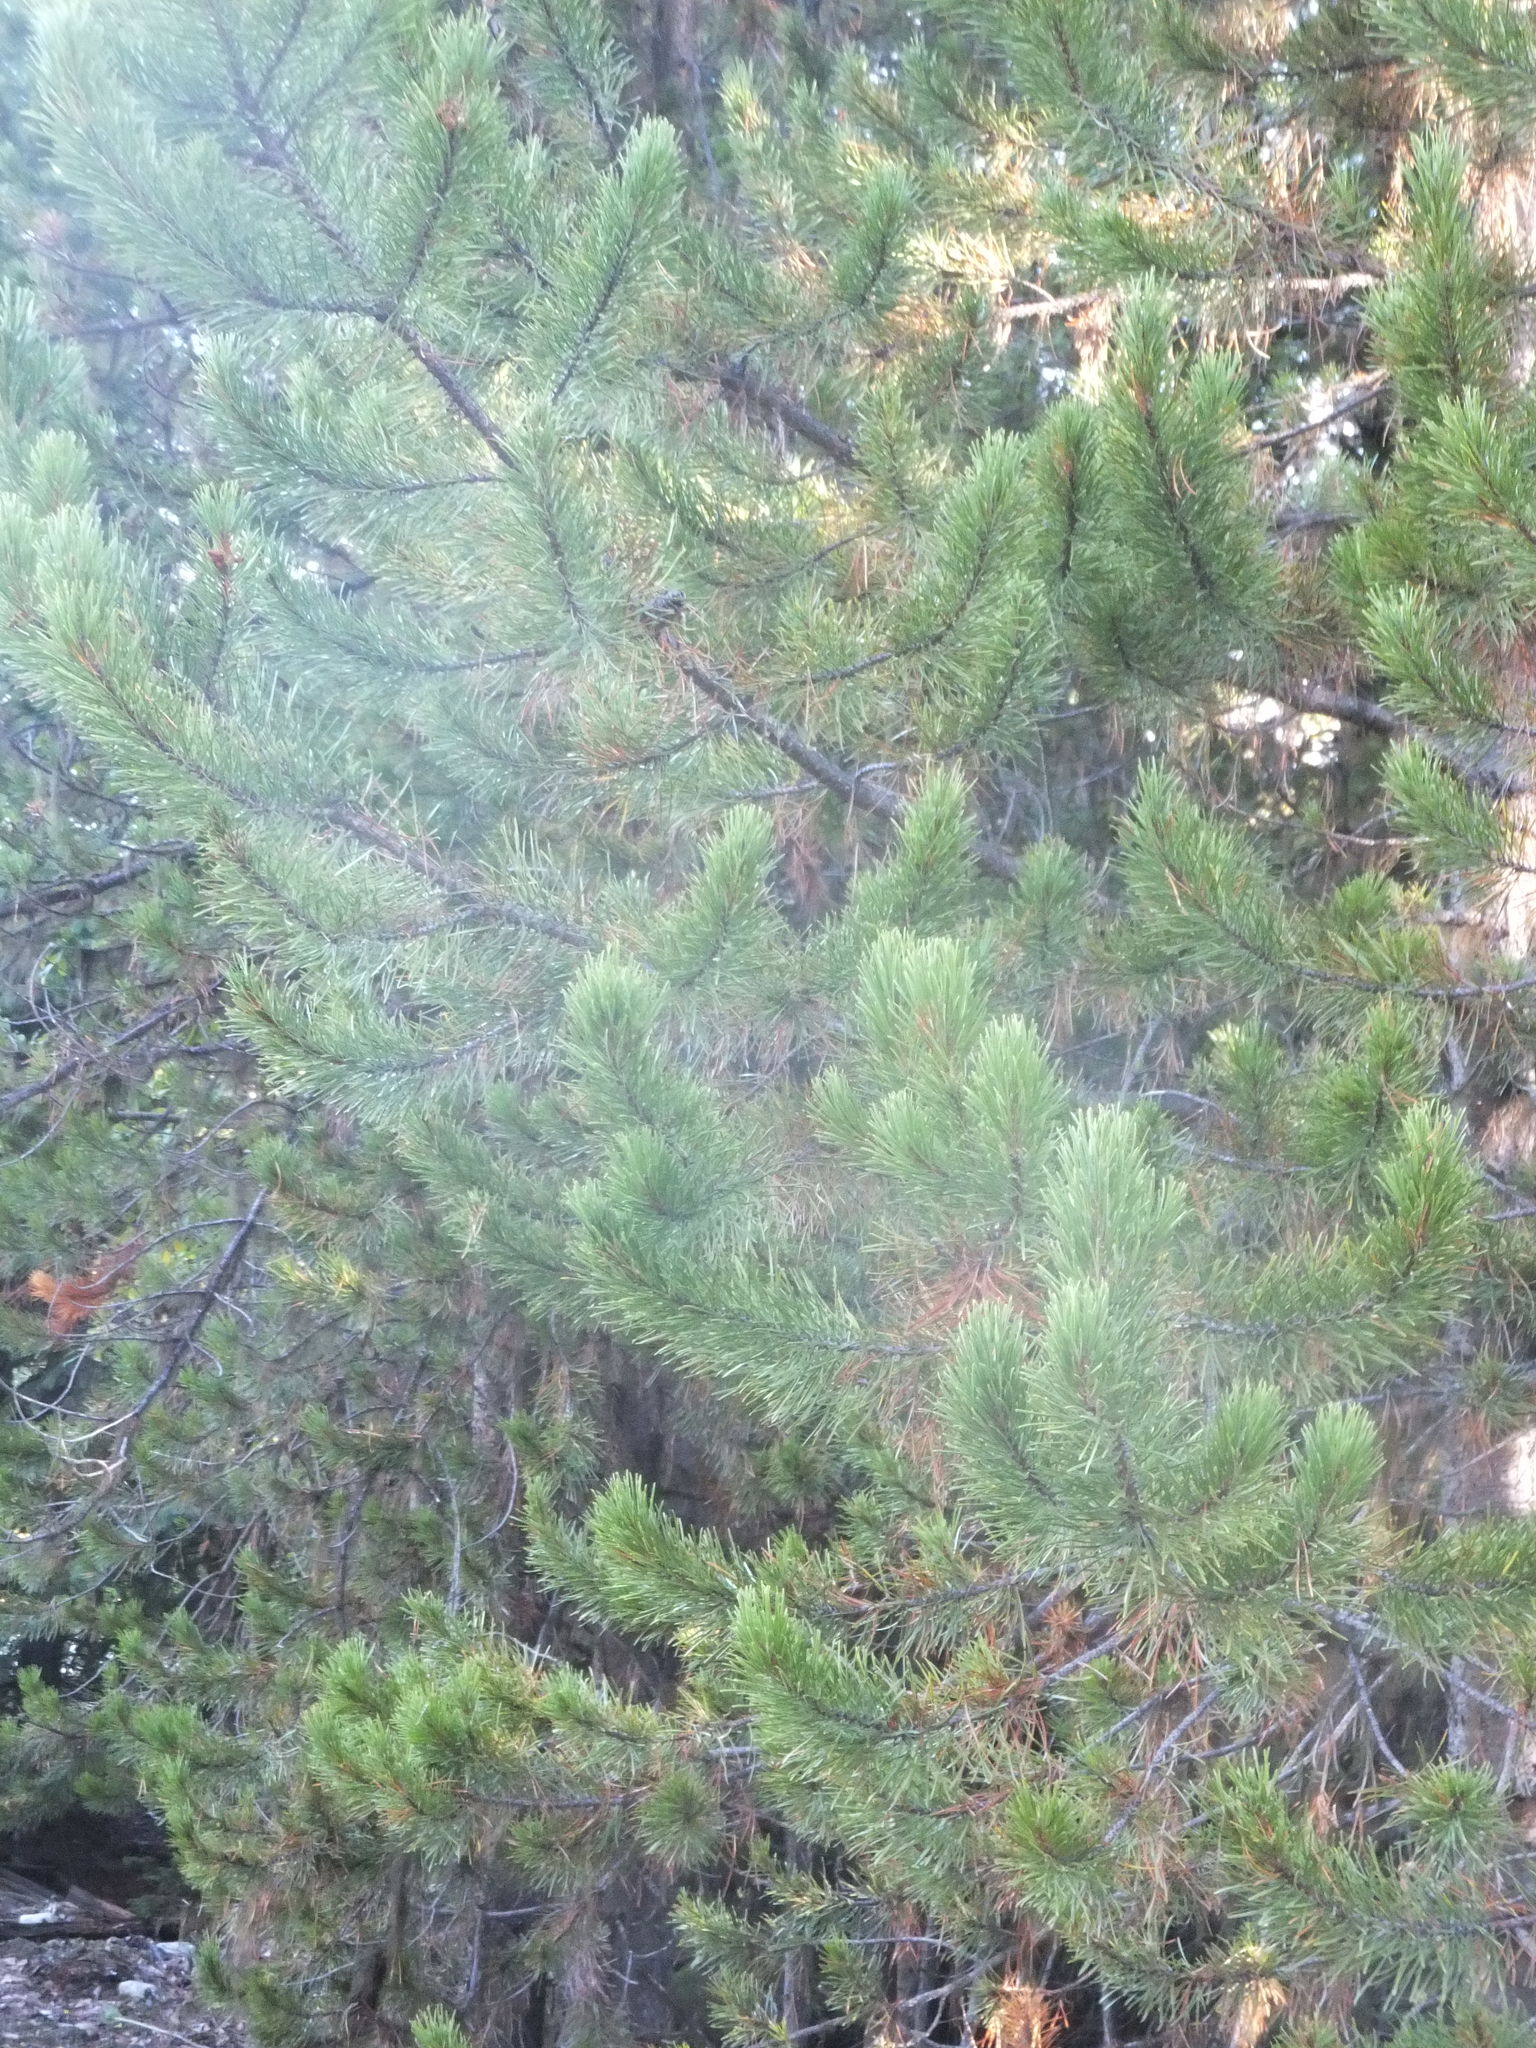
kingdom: Plantae
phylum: Tracheophyta
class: Pinopsida
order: Pinales
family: Pinaceae
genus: Pinus
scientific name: Pinus contorta
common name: Lodgepole pine
